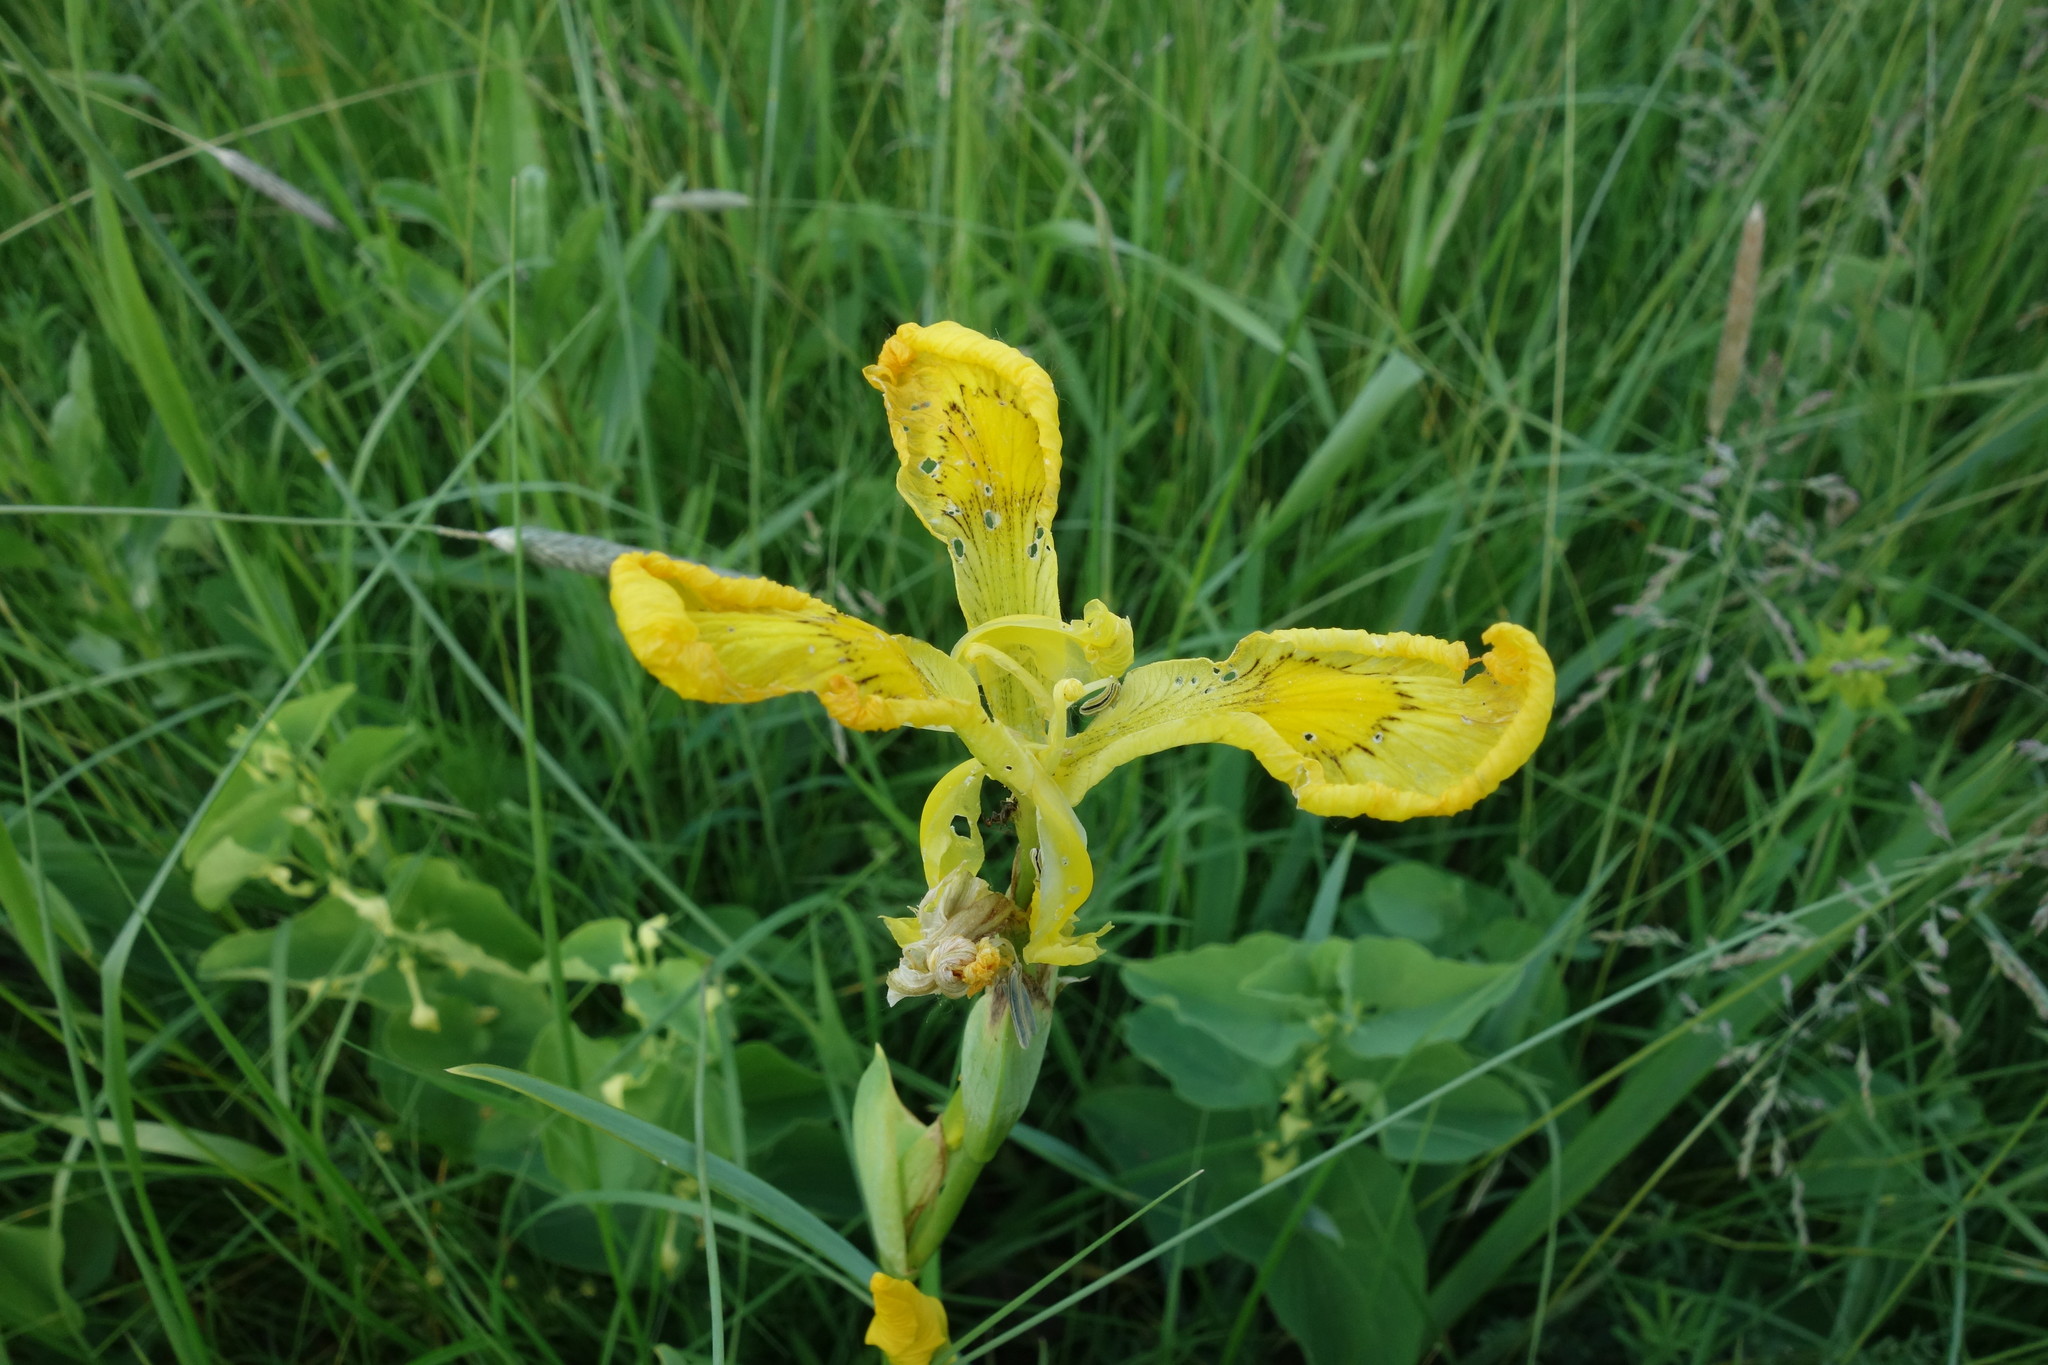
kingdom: Plantae
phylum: Tracheophyta
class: Liliopsida
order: Asparagales
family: Iridaceae
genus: Iris
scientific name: Iris pseudacorus
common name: Yellow flag
